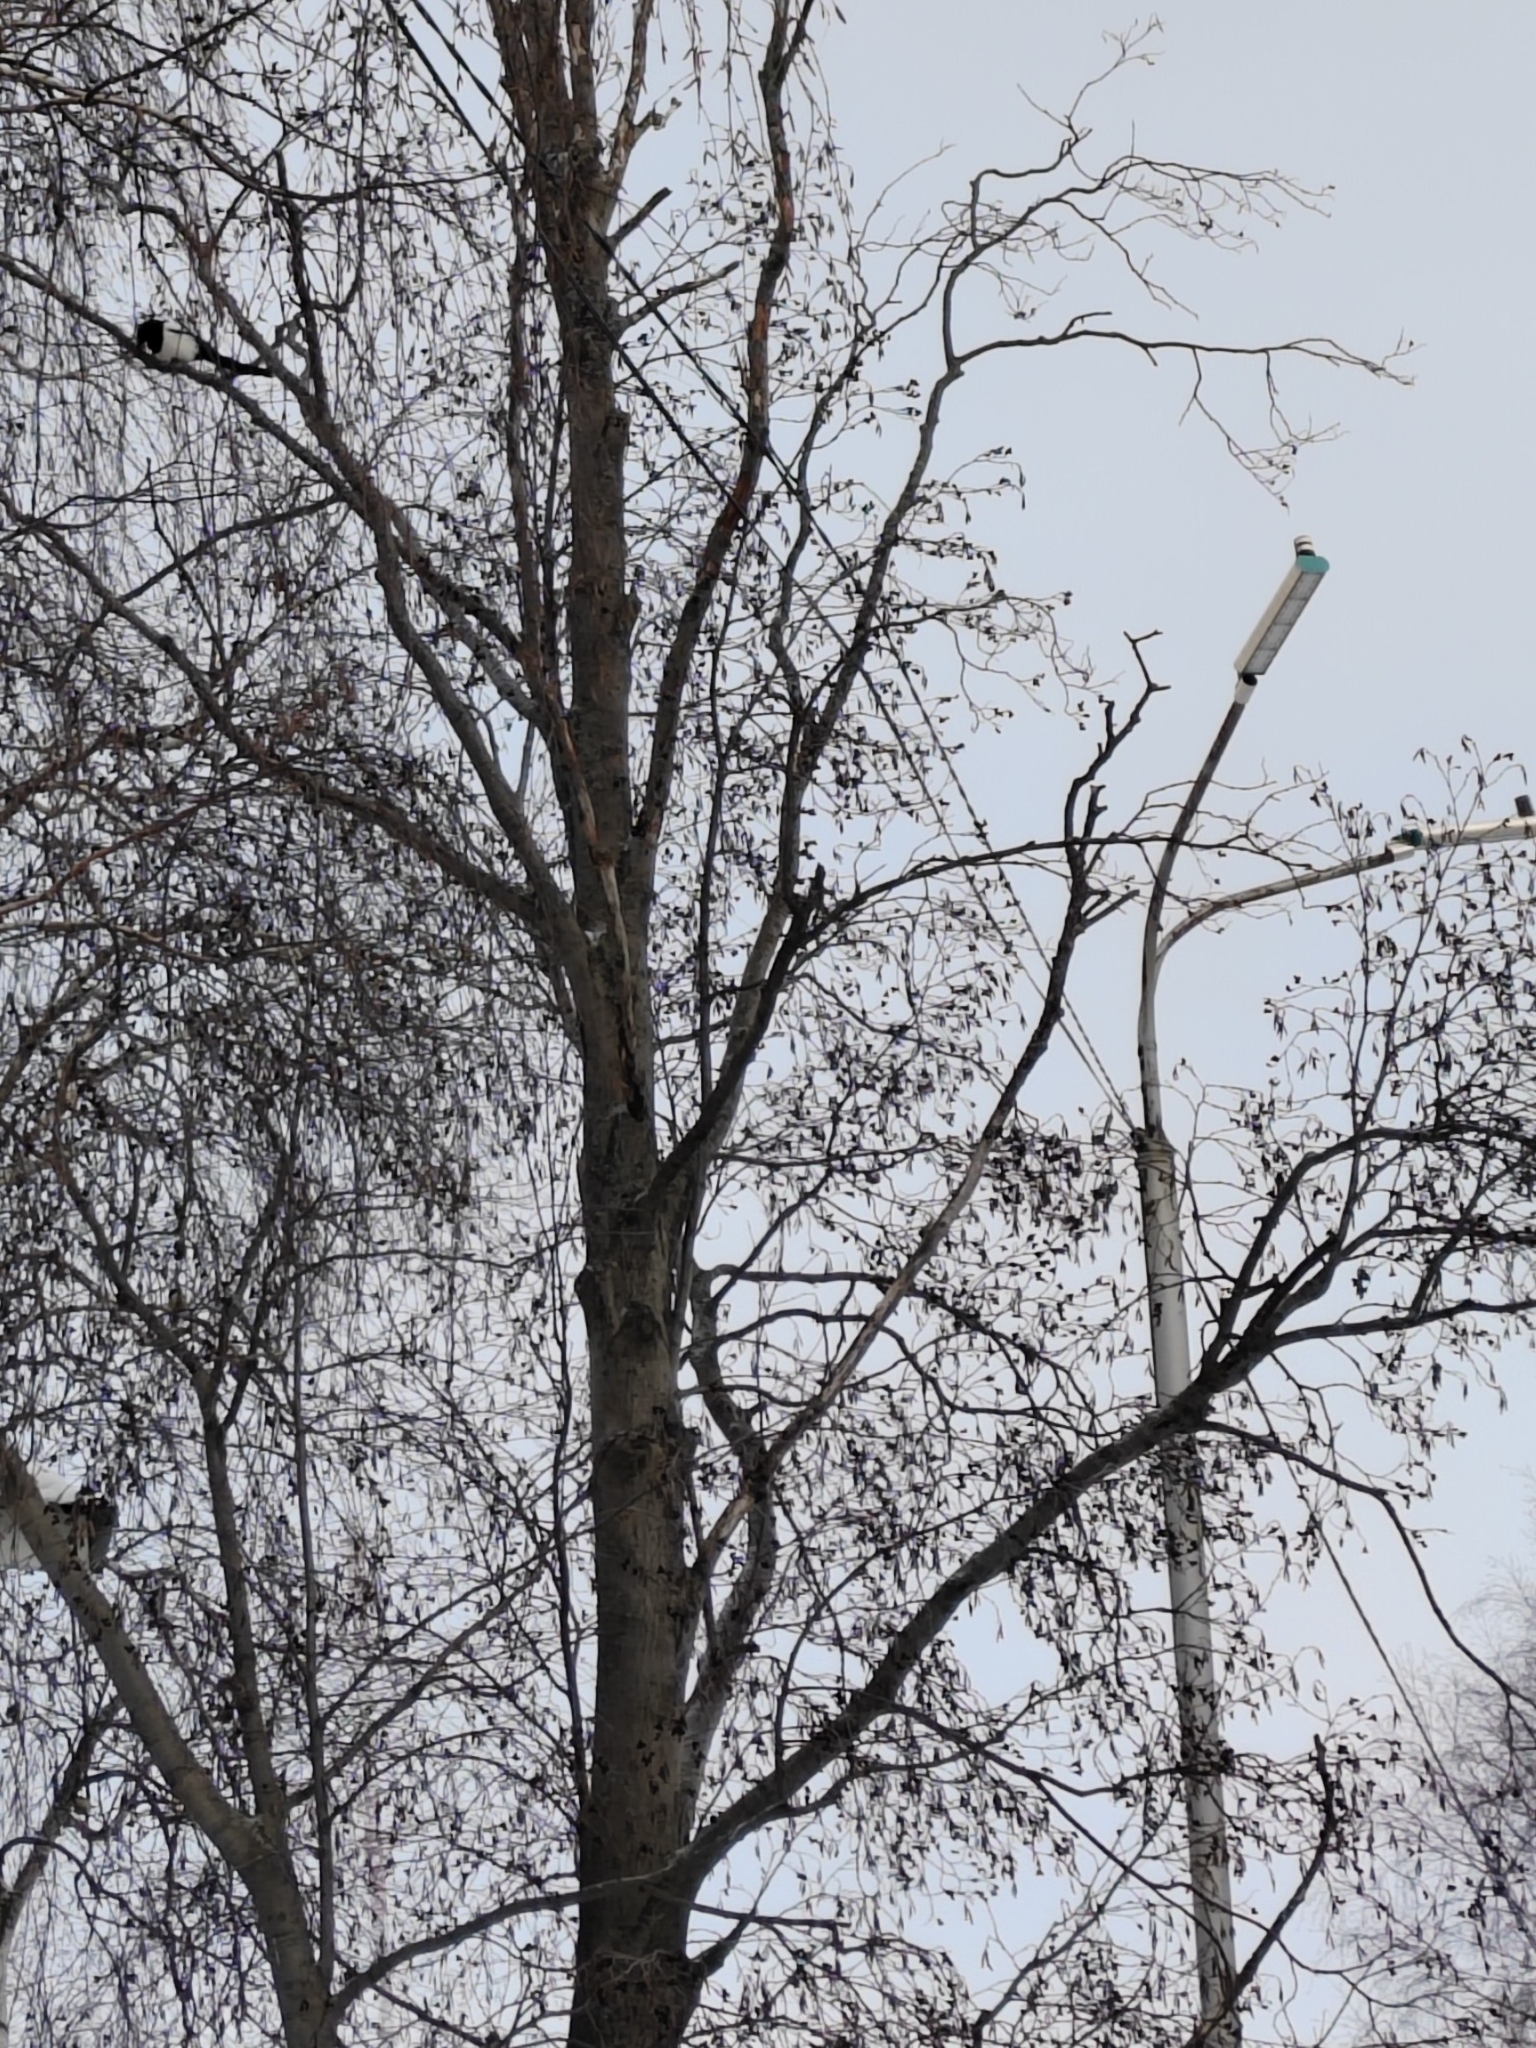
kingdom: Plantae
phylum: Tracheophyta
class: Magnoliopsida
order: Fagales
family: Betulaceae
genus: Alnus
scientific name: Alnus incana
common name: Grey alder
